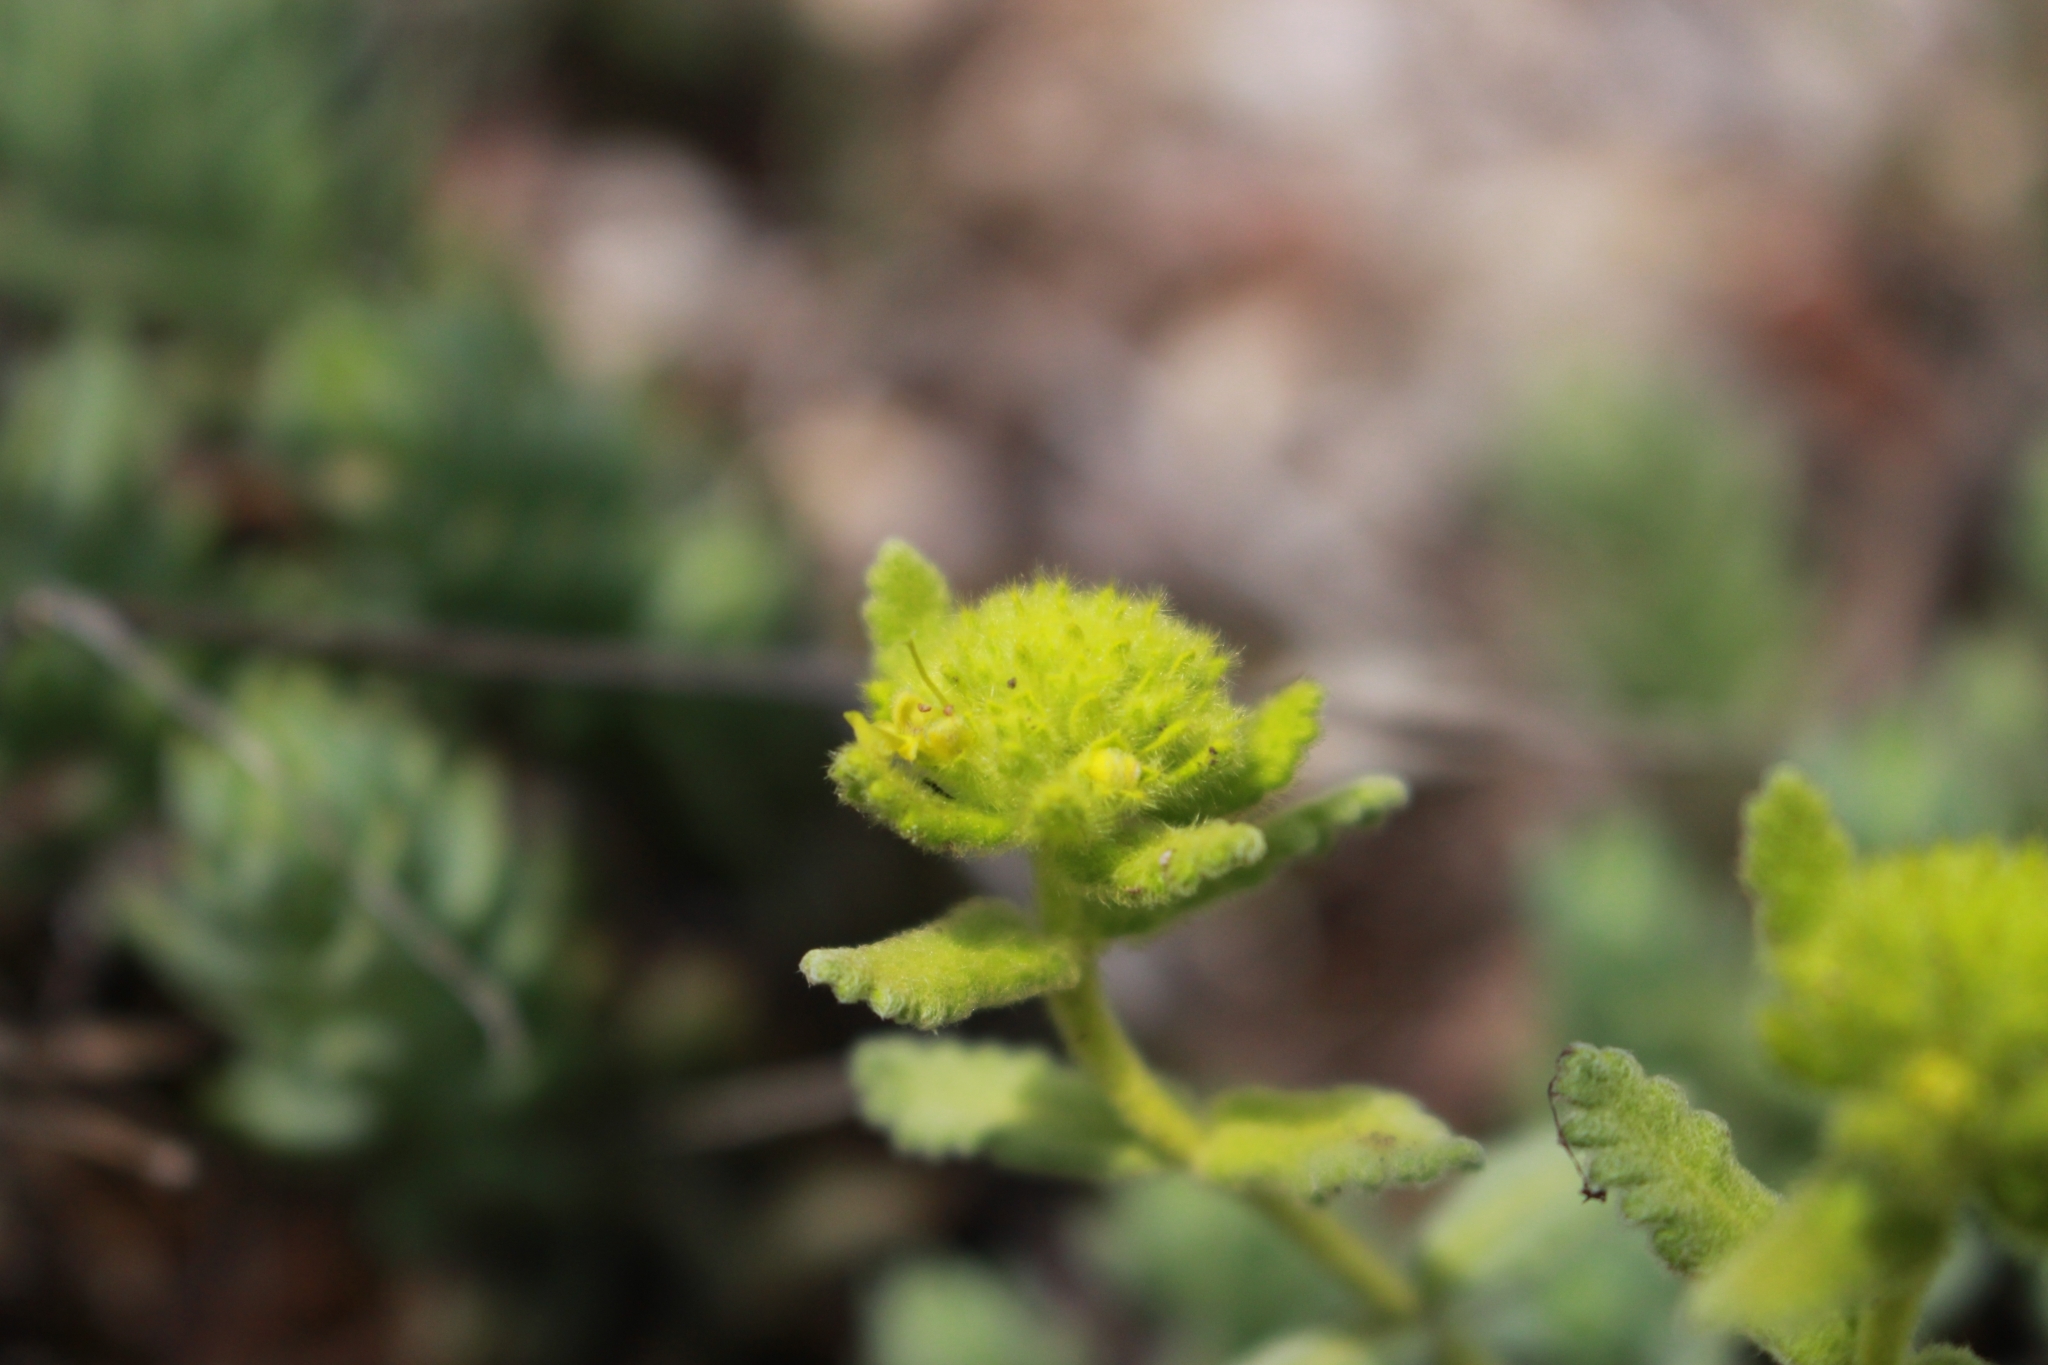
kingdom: Plantae
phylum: Tracheophyta
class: Magnoliopsida
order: Lamiales
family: Lamiaceae
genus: Teucrium
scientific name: Teucrium aureum
